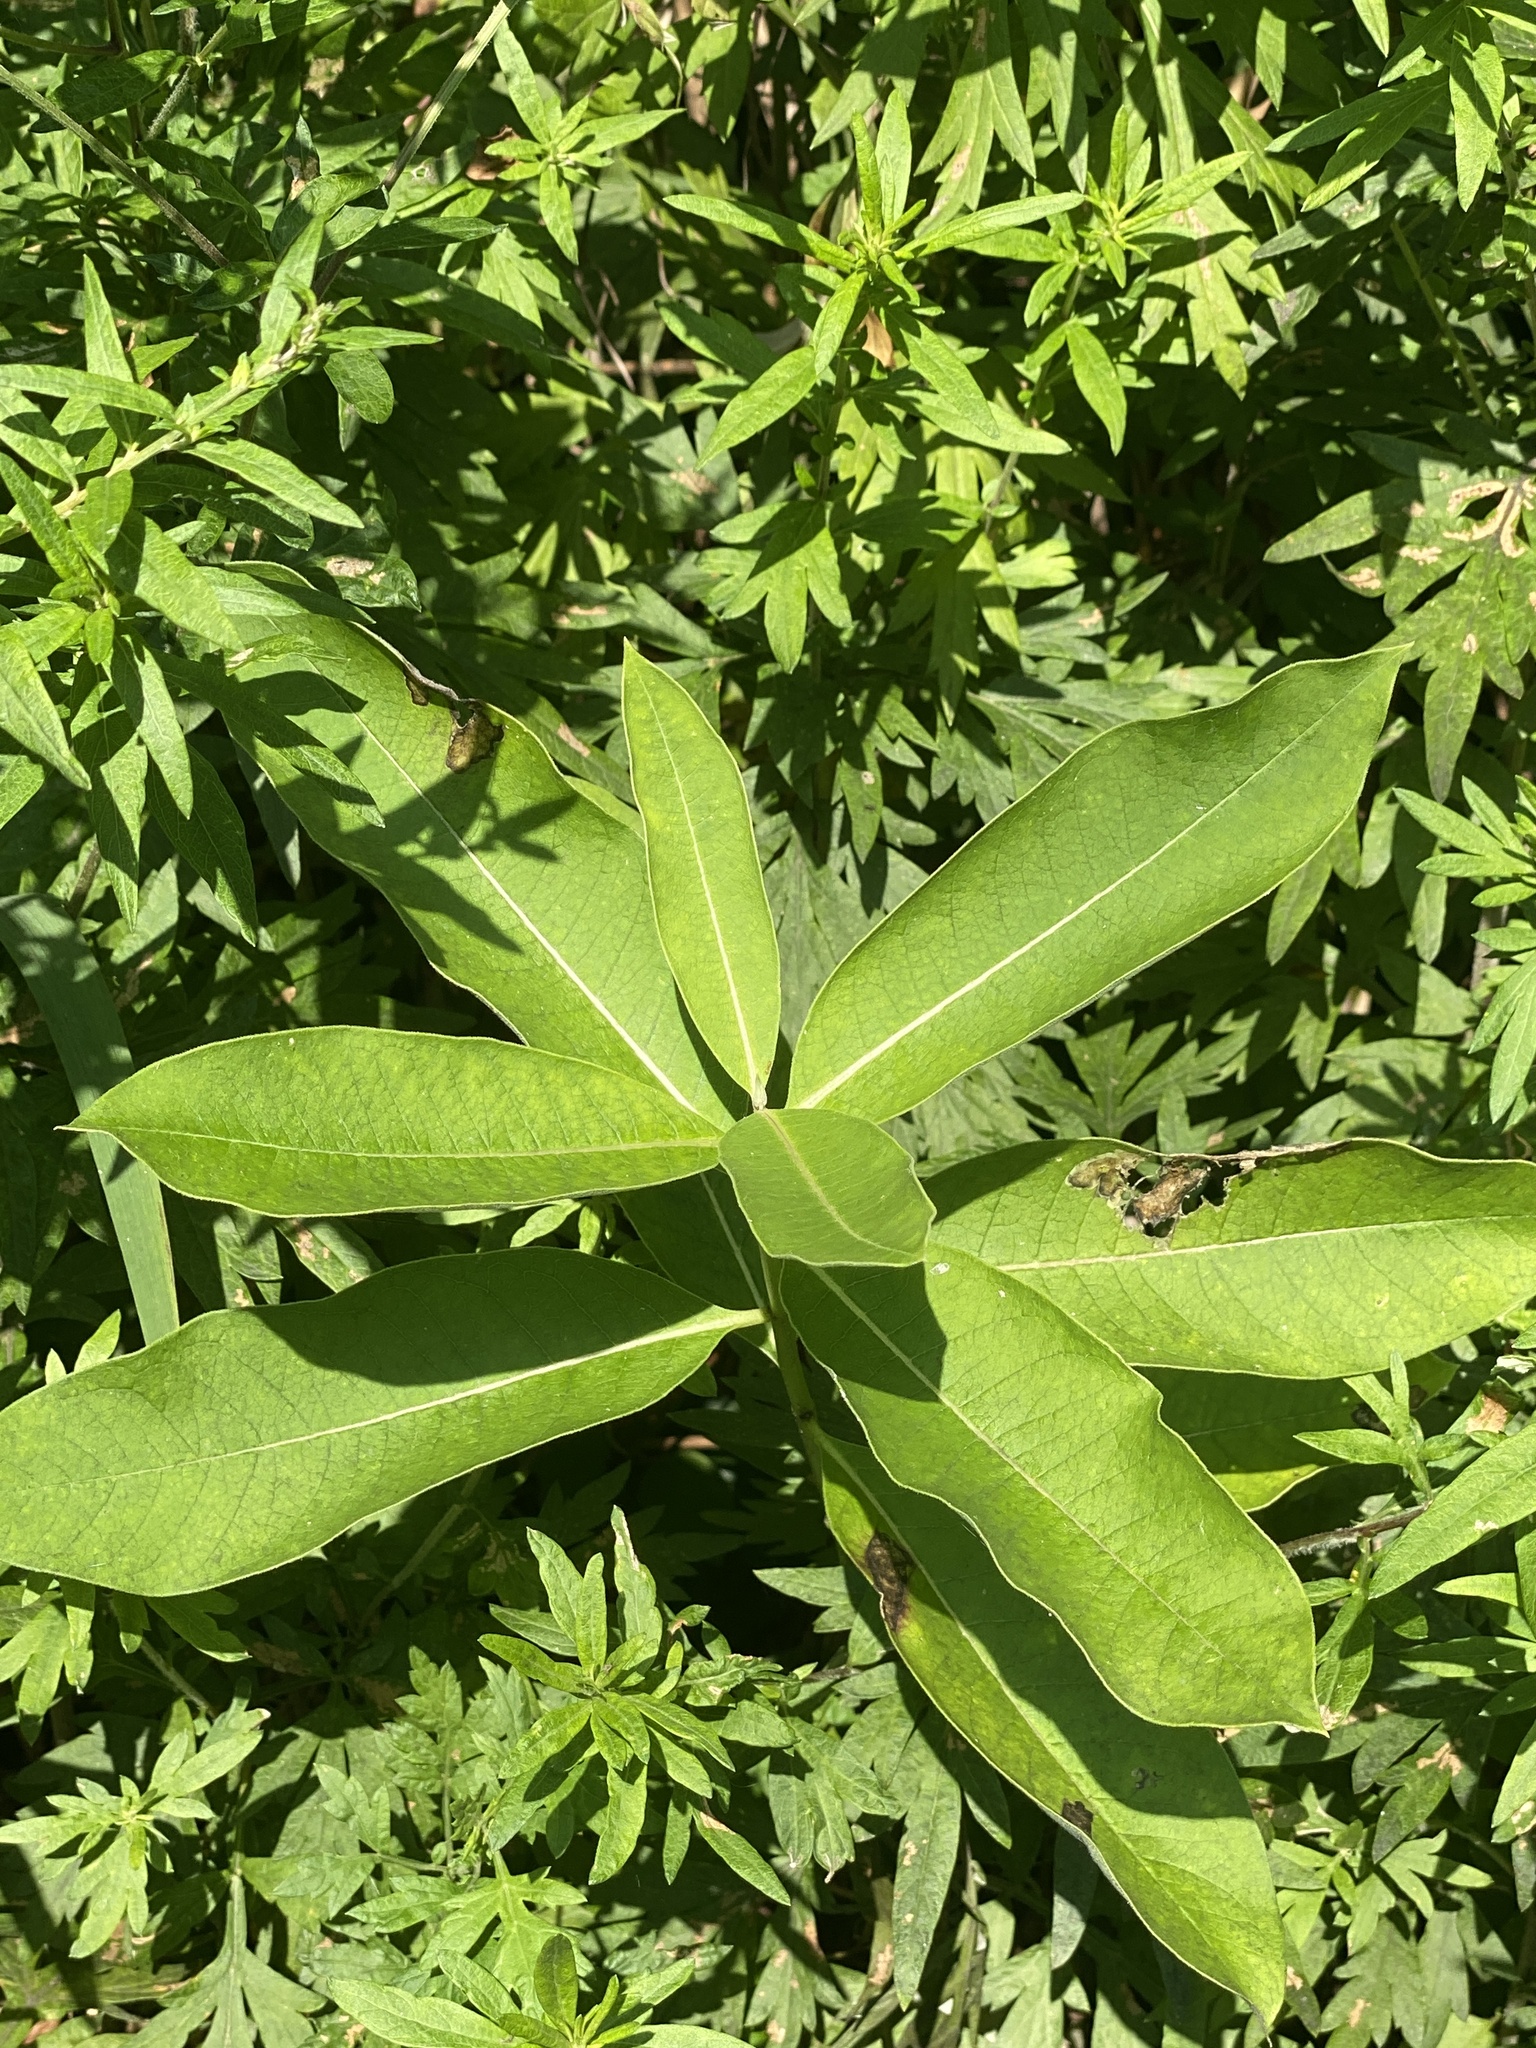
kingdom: Plantae
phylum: Tracheophyta
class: Magnoliopsida
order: Gentianales
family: Apocynaceae
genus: Asclepias
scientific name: Asclepias syriaca
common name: Common milkweed
